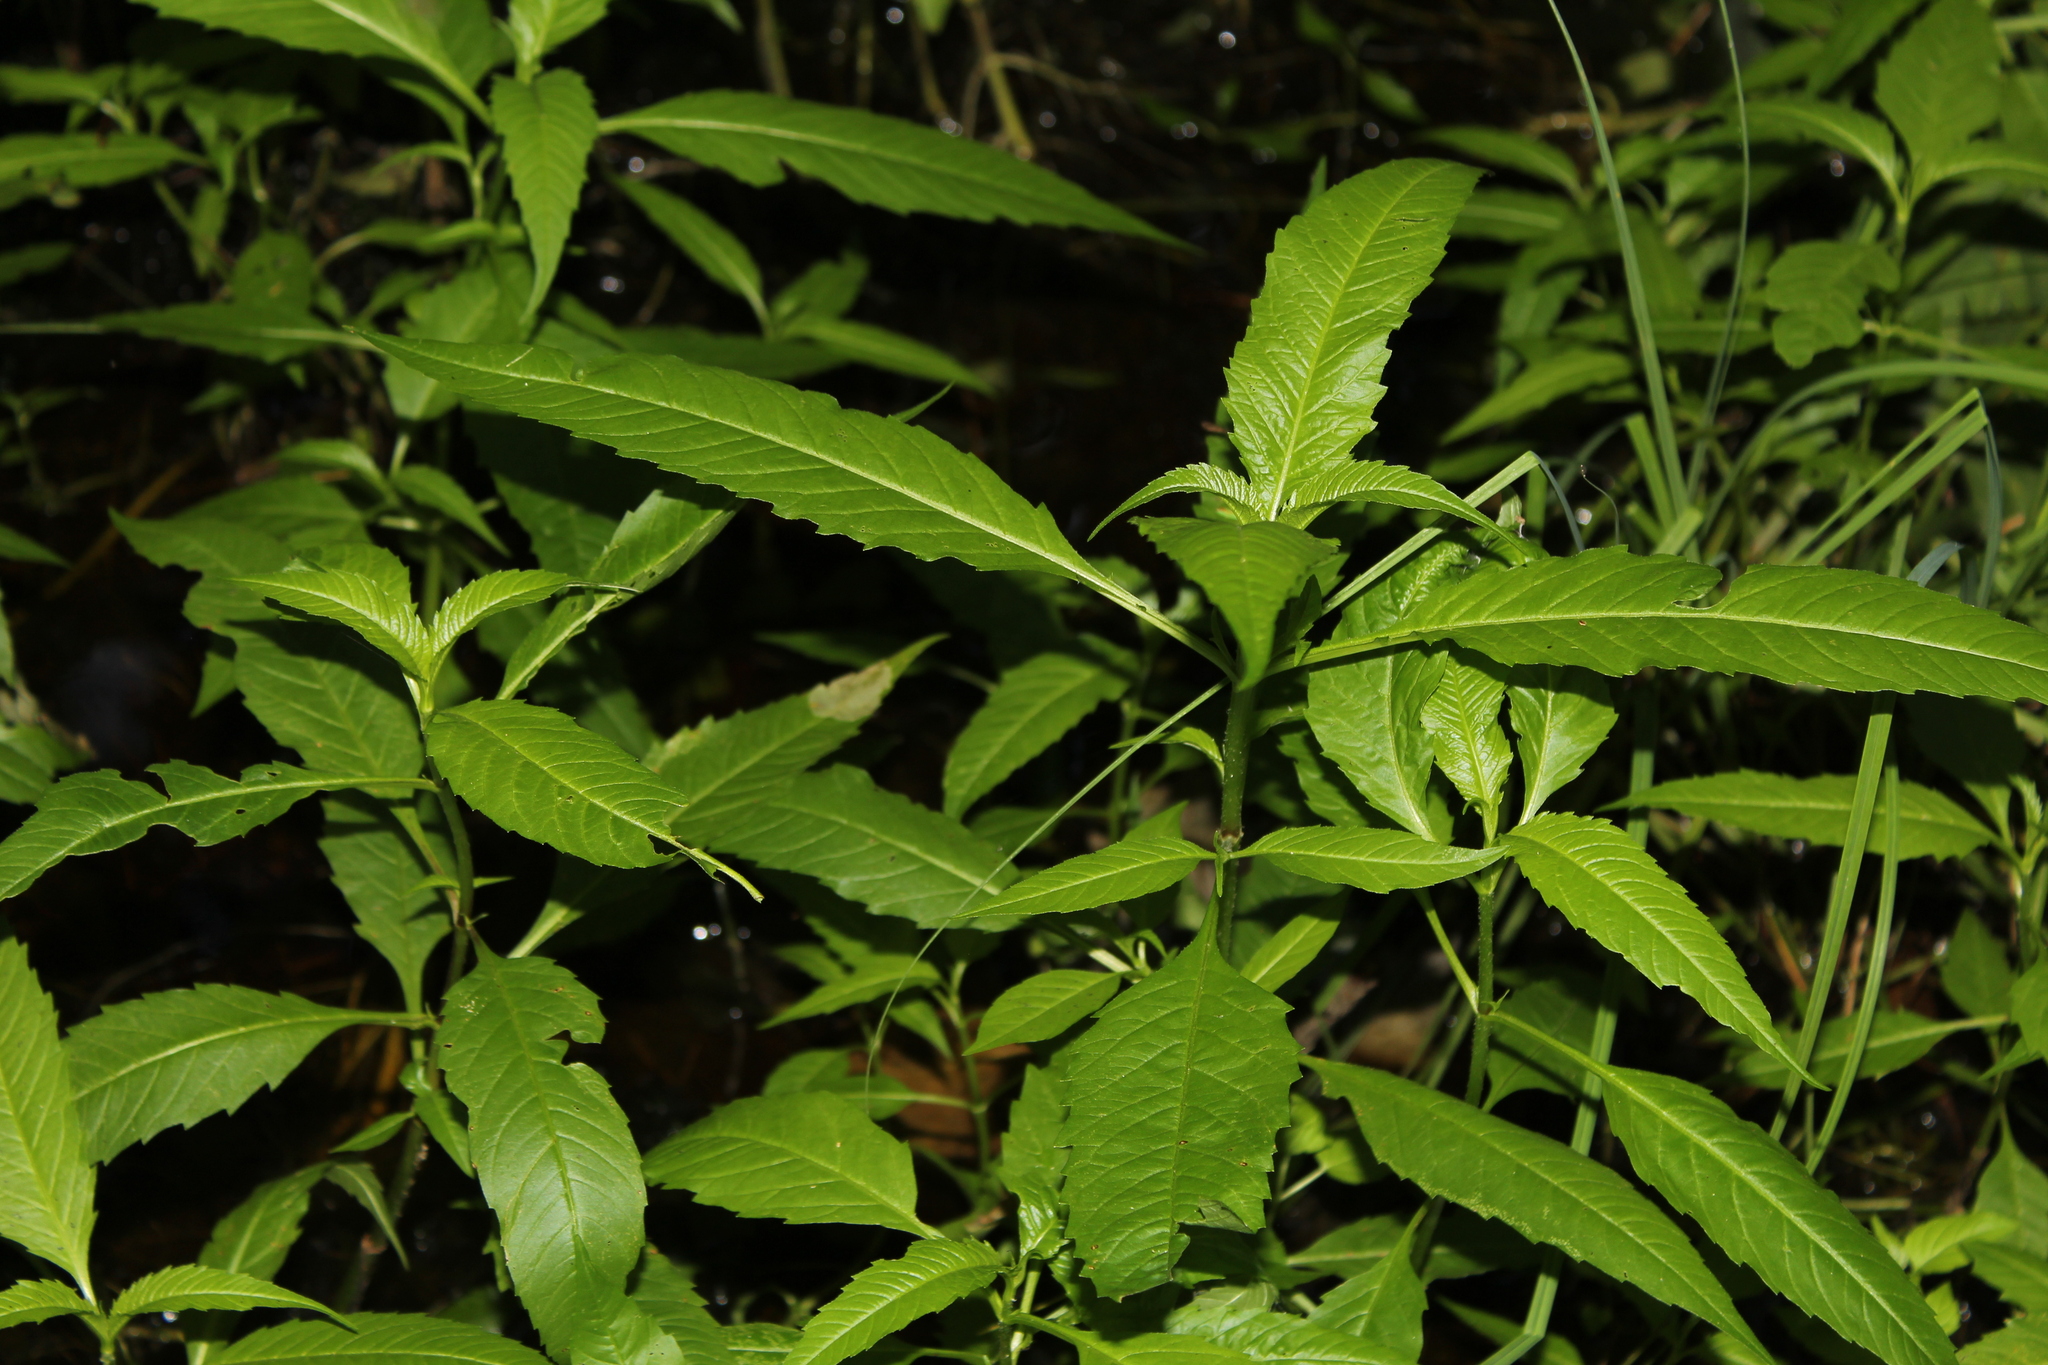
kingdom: Animalia
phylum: Arthropoda
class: Insecta
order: Diptera
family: Agromyzidae
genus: Calycomyza
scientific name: Calycomyza
